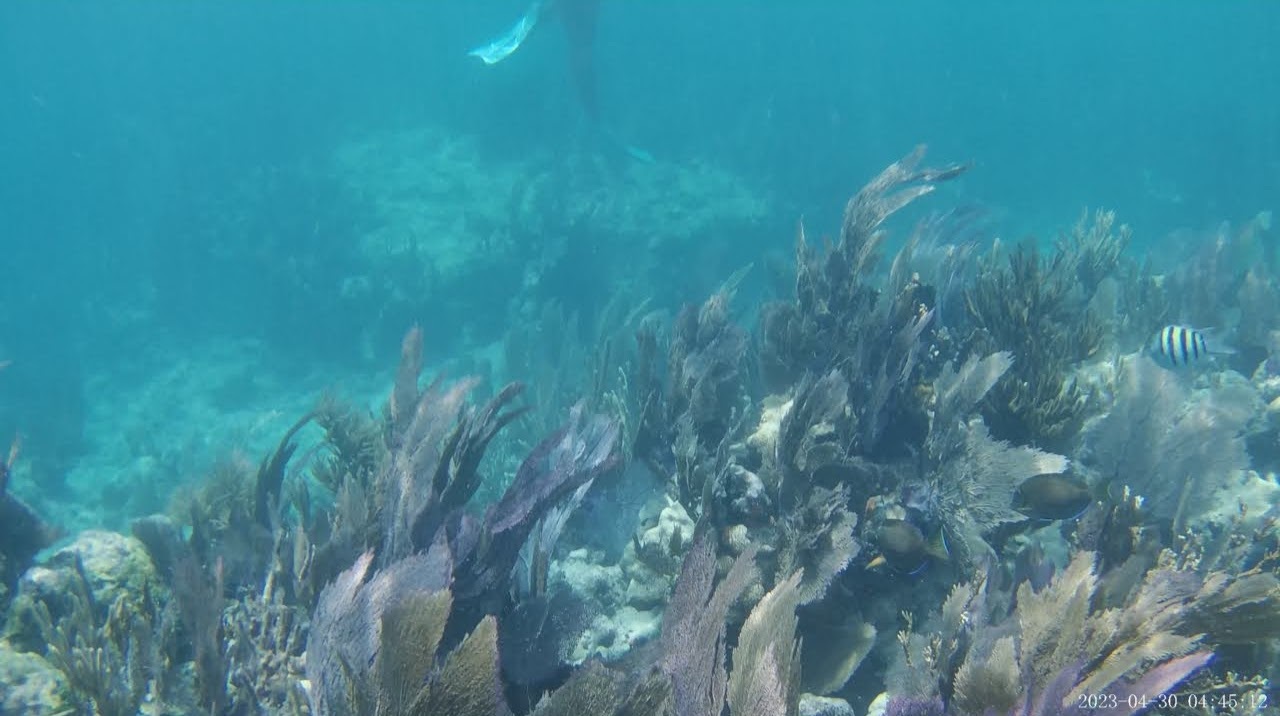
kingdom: Animalia
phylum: Chordata
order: Perciformes
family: Pomacentridae
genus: Abudefduf
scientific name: Abudefduf saxatilis
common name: Sergeant major
